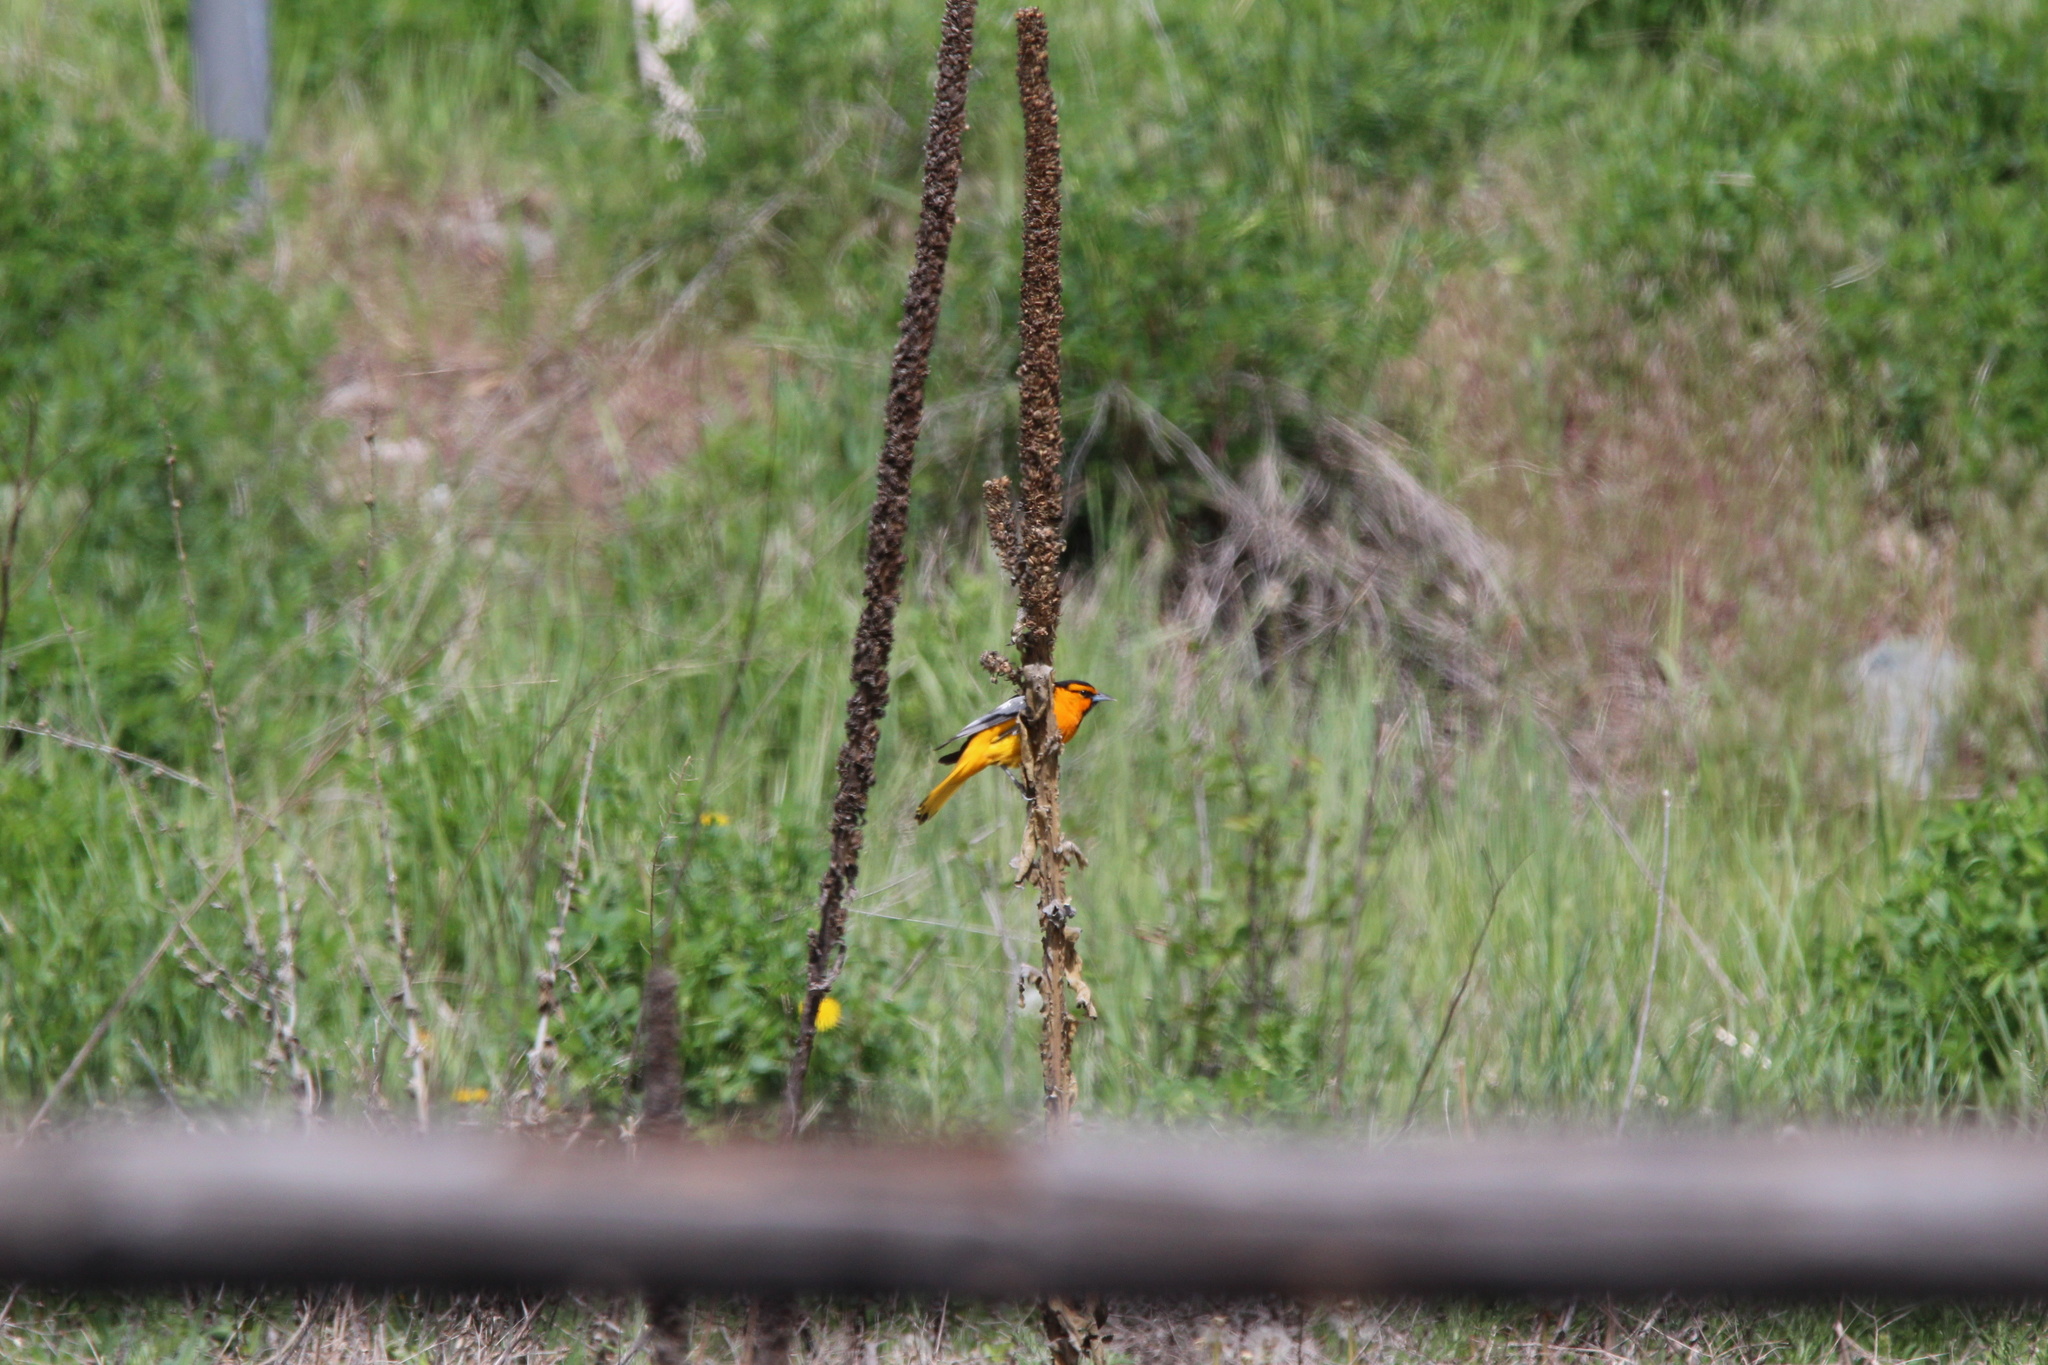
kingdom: Animalia
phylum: Chordata
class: Aves
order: Passeriformes
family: Icteridae
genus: Icterus
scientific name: Icterus bullockii
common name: Bullock's oriole
